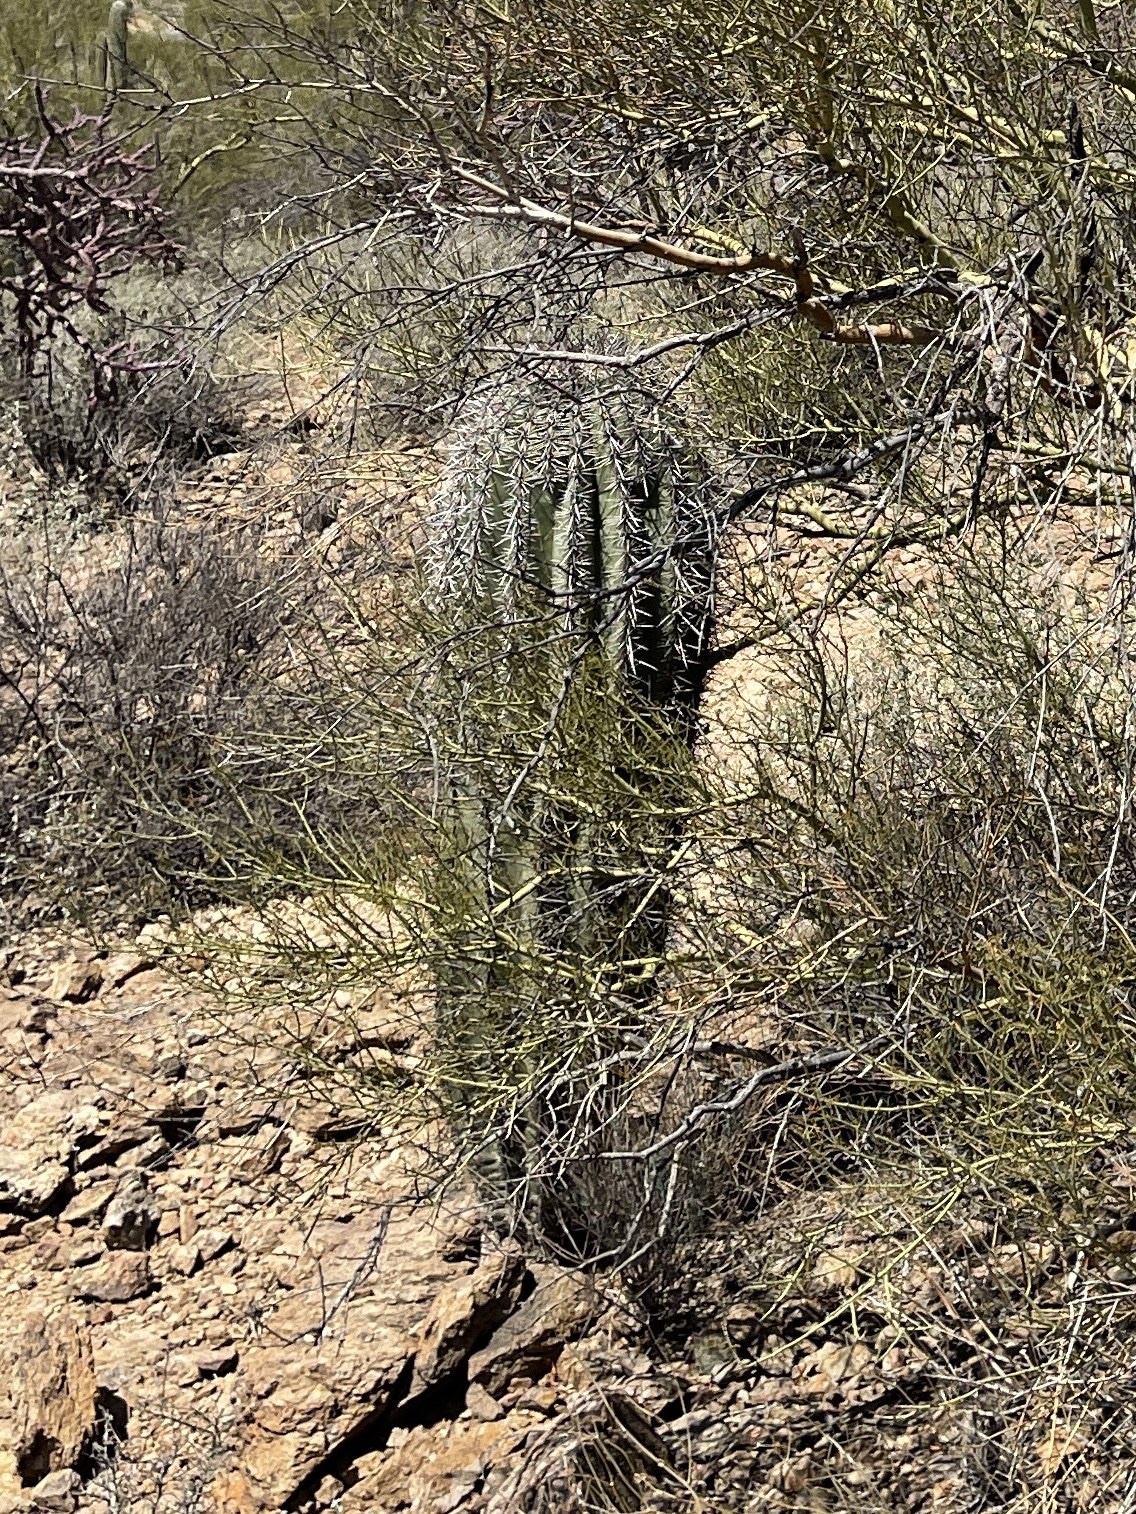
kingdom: Plantae
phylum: Tracheophyta
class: Magnoliopsida
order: Caryophyllales
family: Cactaceae
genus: Carnegiea
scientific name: Carnegiea gigantea
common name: Saguaro
